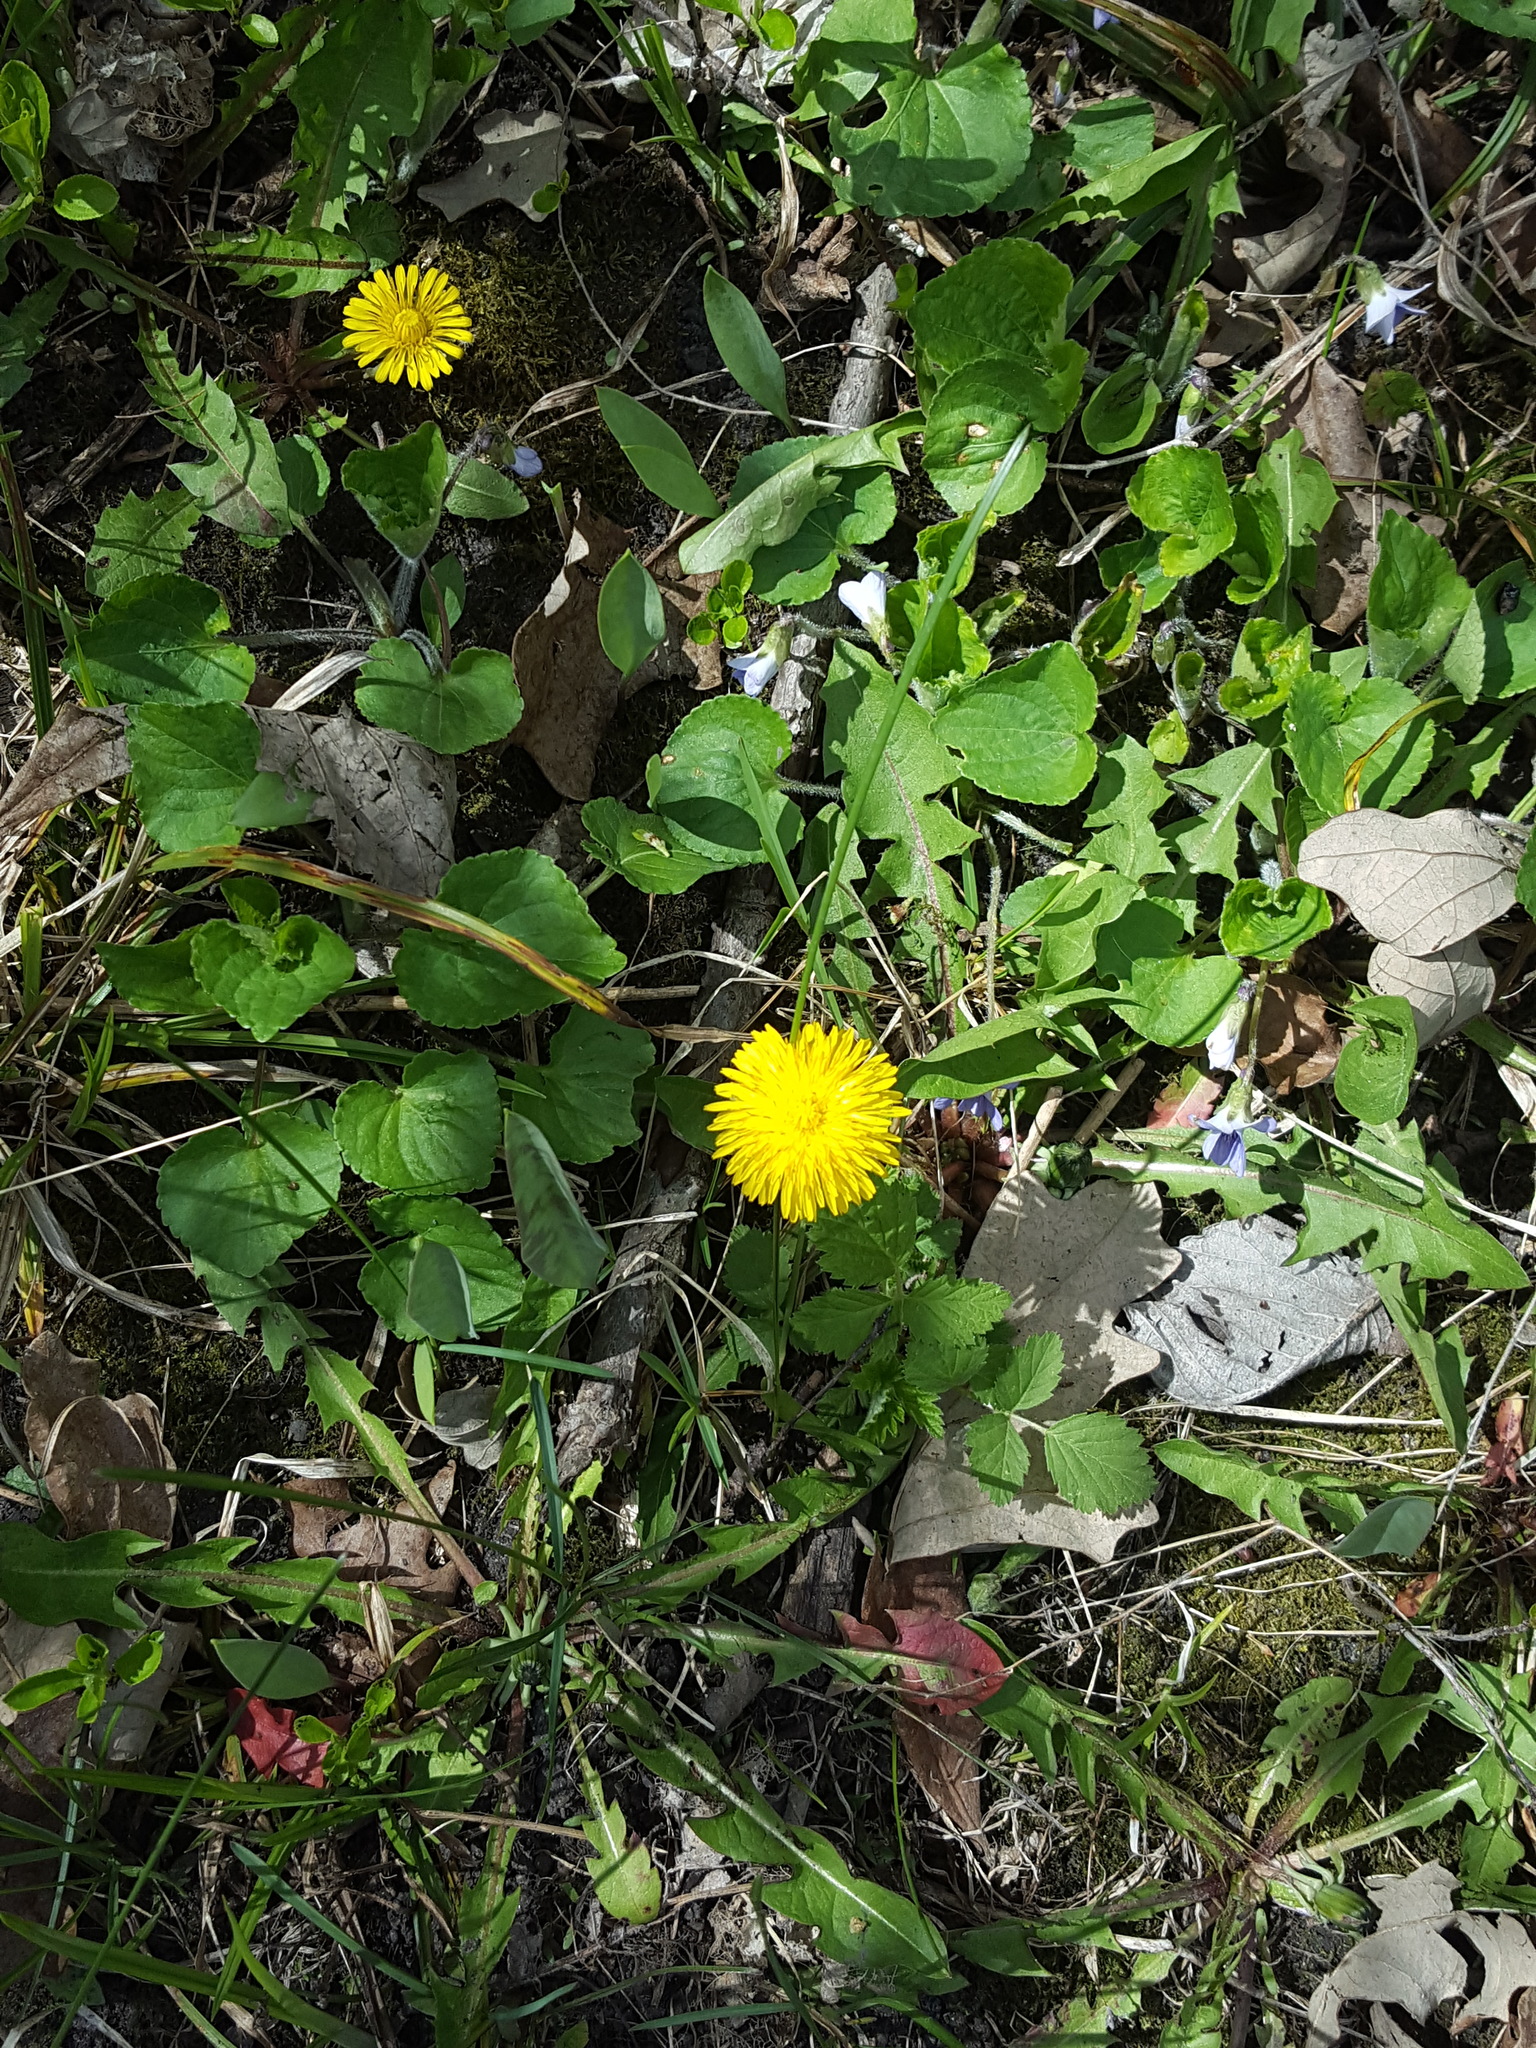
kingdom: Plantae
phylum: Tracheophyta
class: Magnoliopsida
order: Asterales
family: Asteraceae
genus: Taraxacum
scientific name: Taraxacum officinale
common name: Common dandelion
